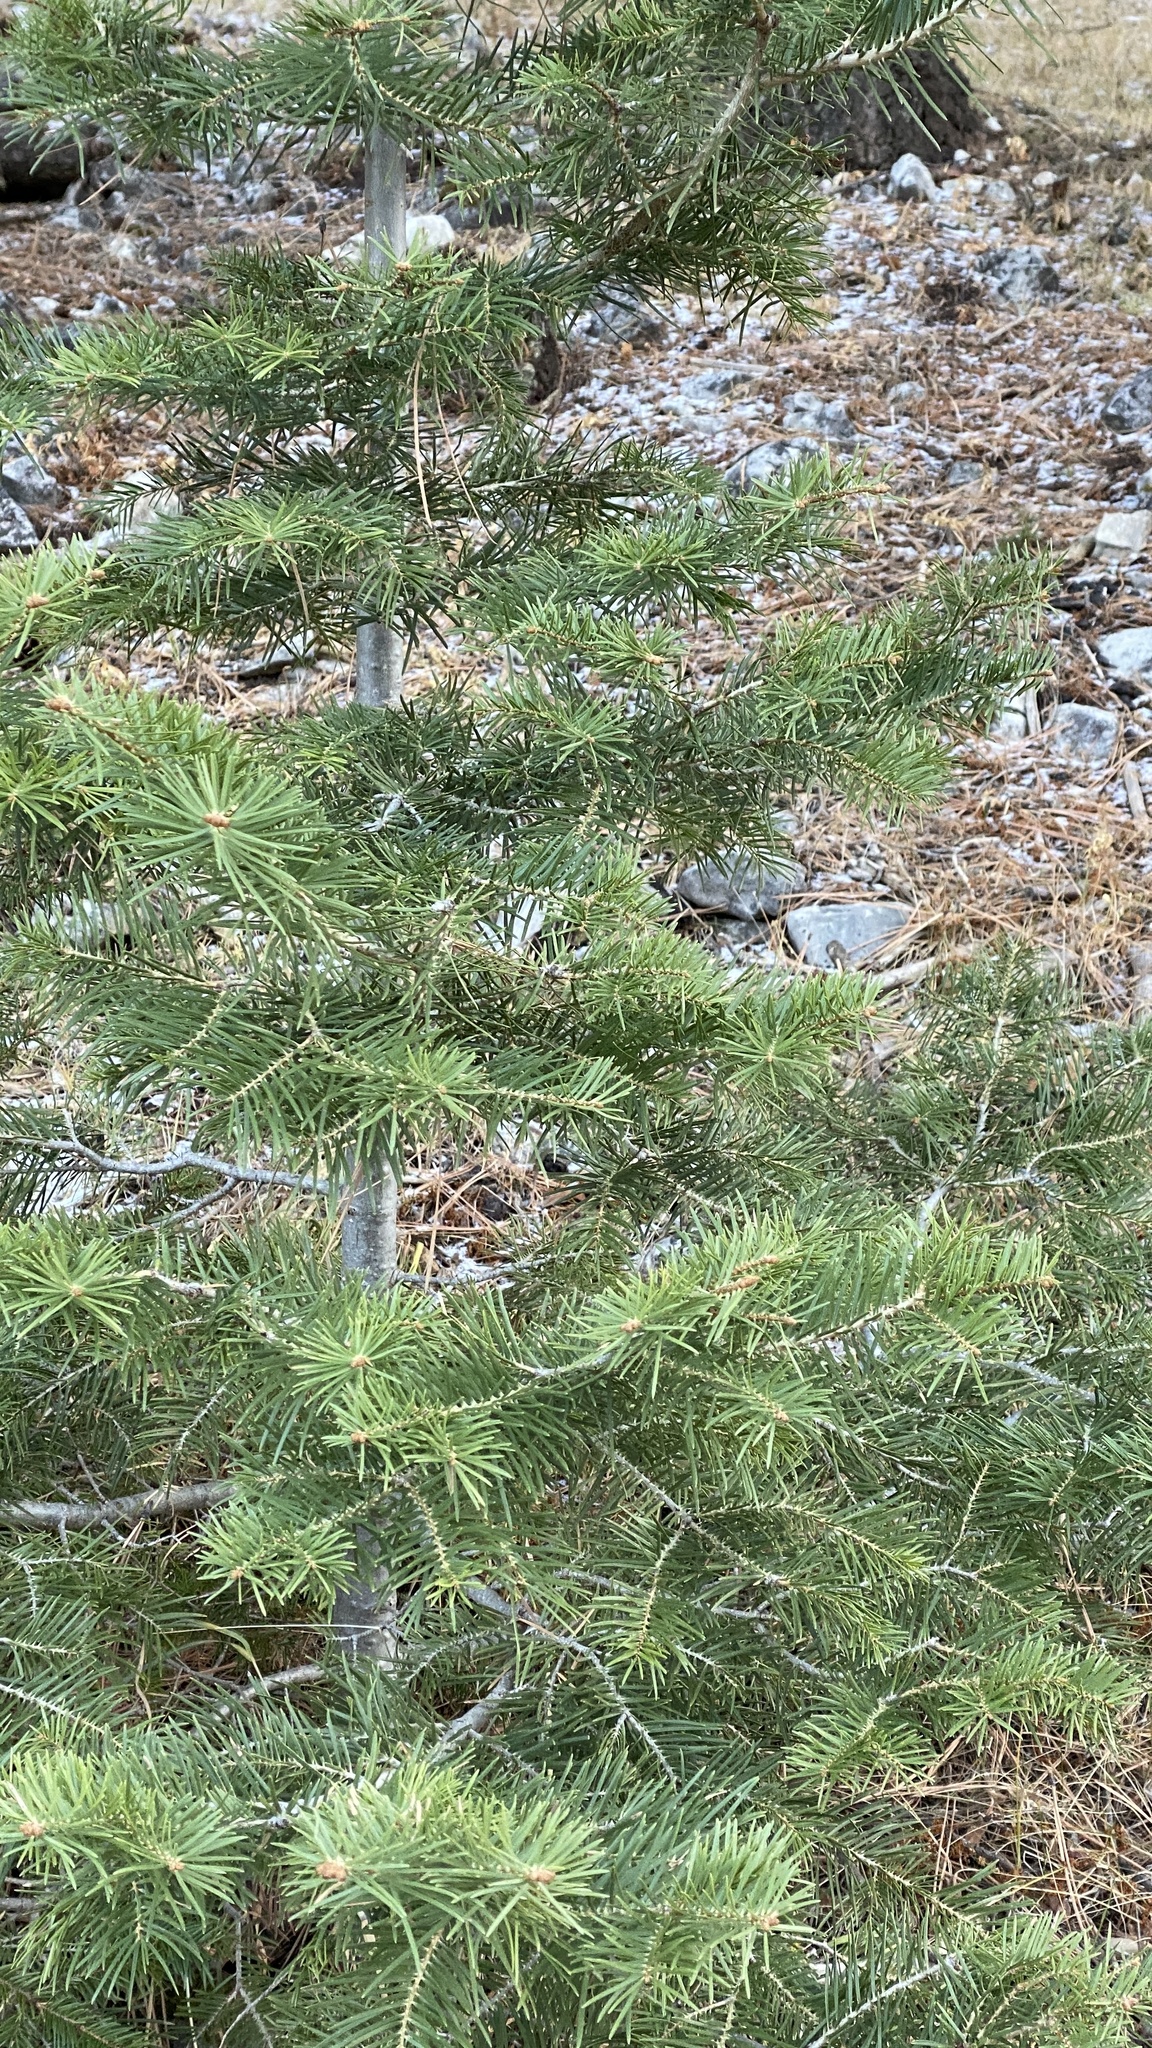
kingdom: Plantae
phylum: Tracheophyta
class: Pinopsida
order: Pinales
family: Pinaceae
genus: Abies
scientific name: Abies concolor
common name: Colorado fir
